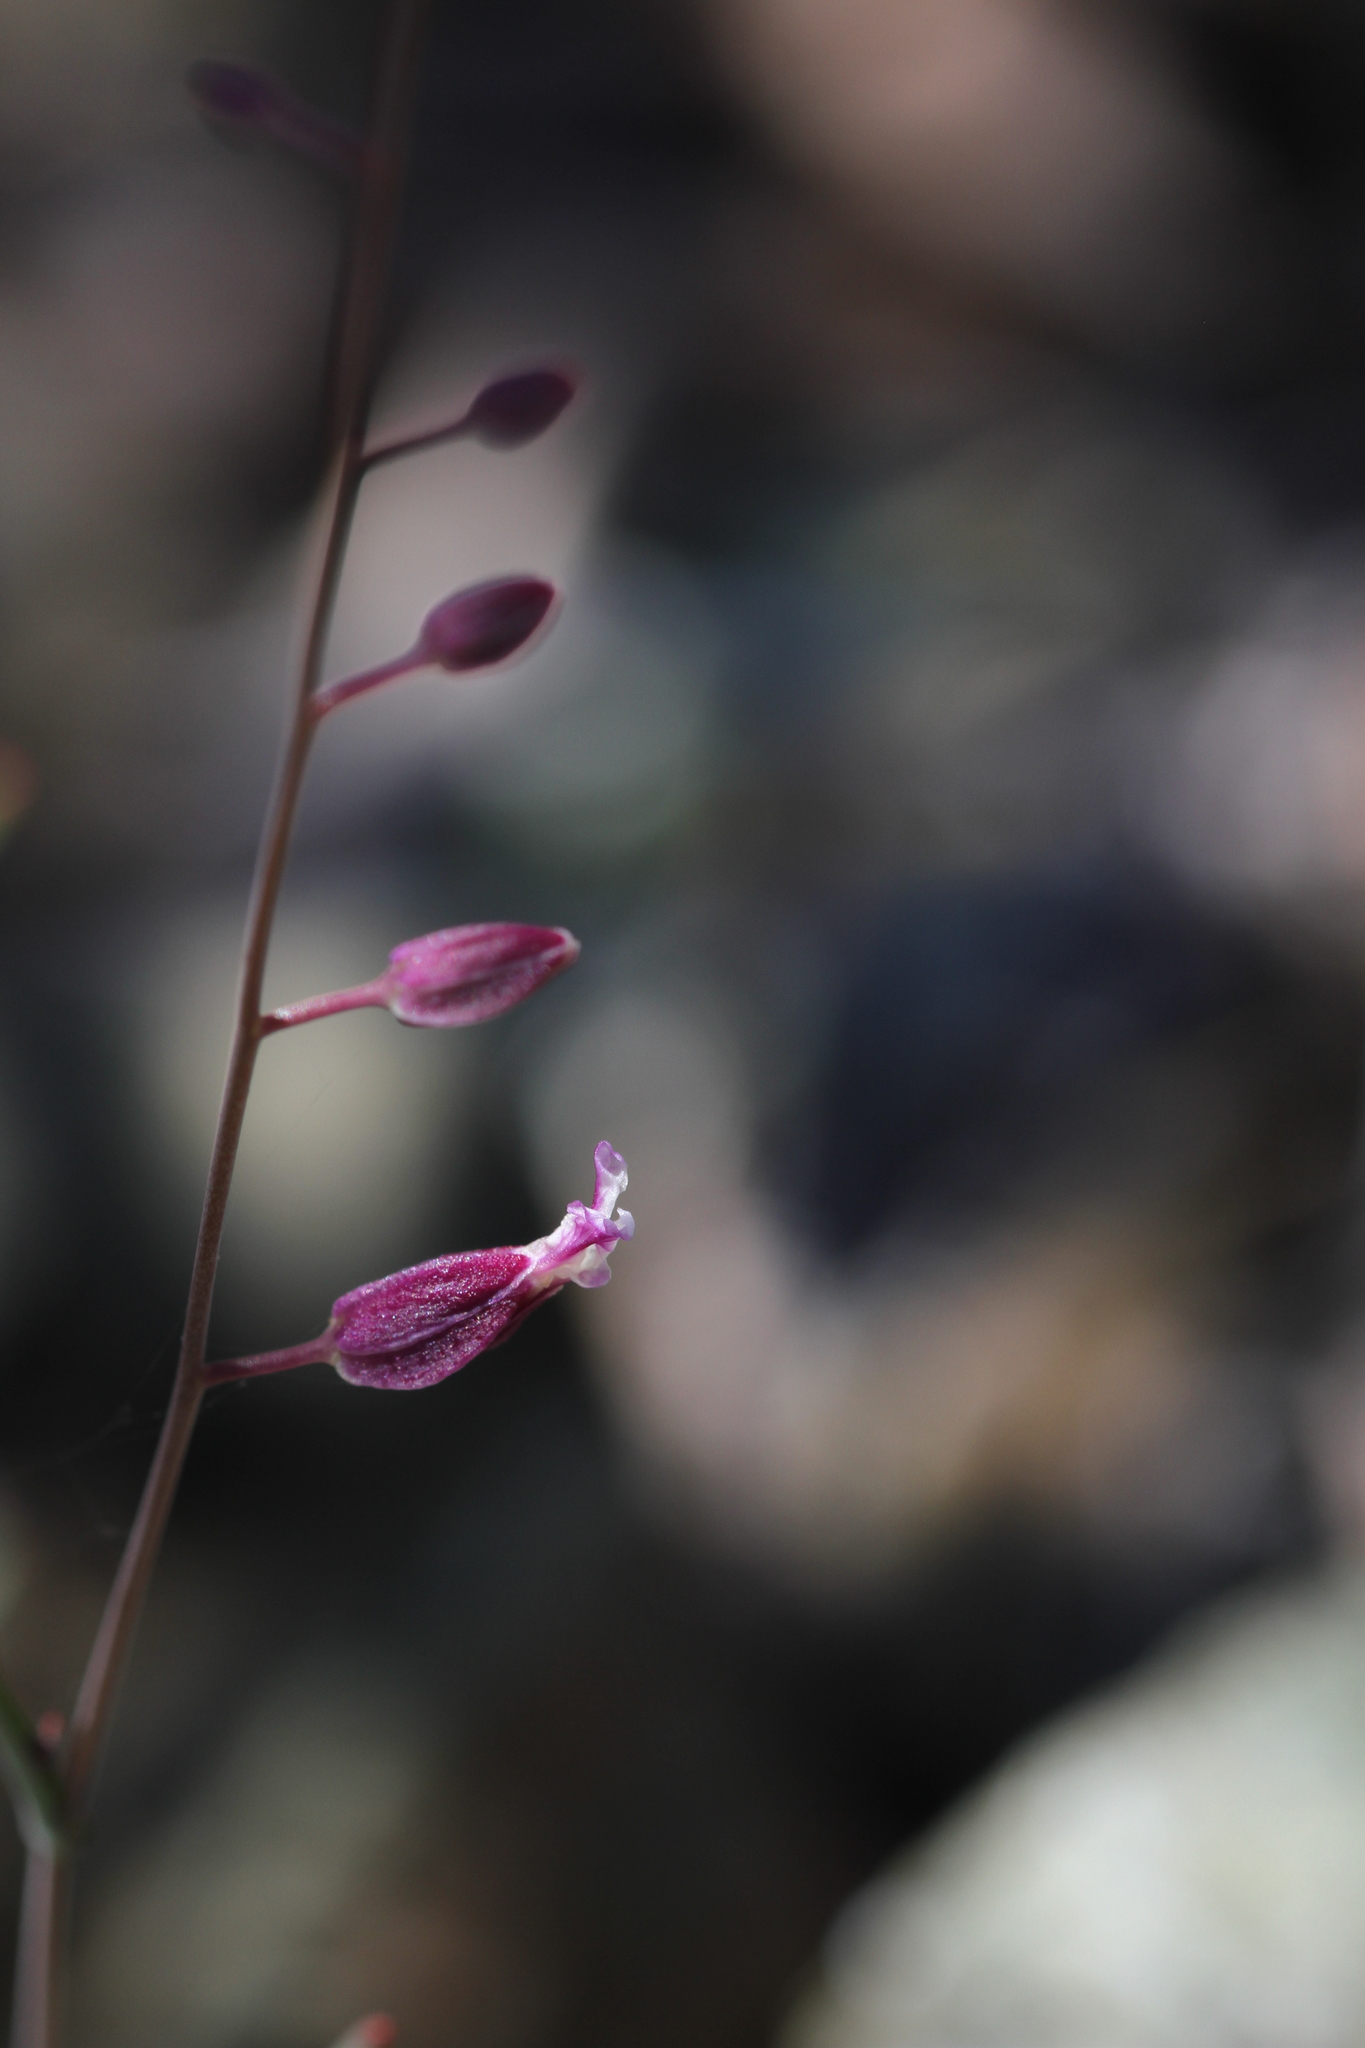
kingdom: Plantae
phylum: Tracheophyta
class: Magnoliopsida
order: Brassicales
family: Brassicaceae
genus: Streptanthus
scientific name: Streptanthus glandulosus
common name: Jewel-flower
